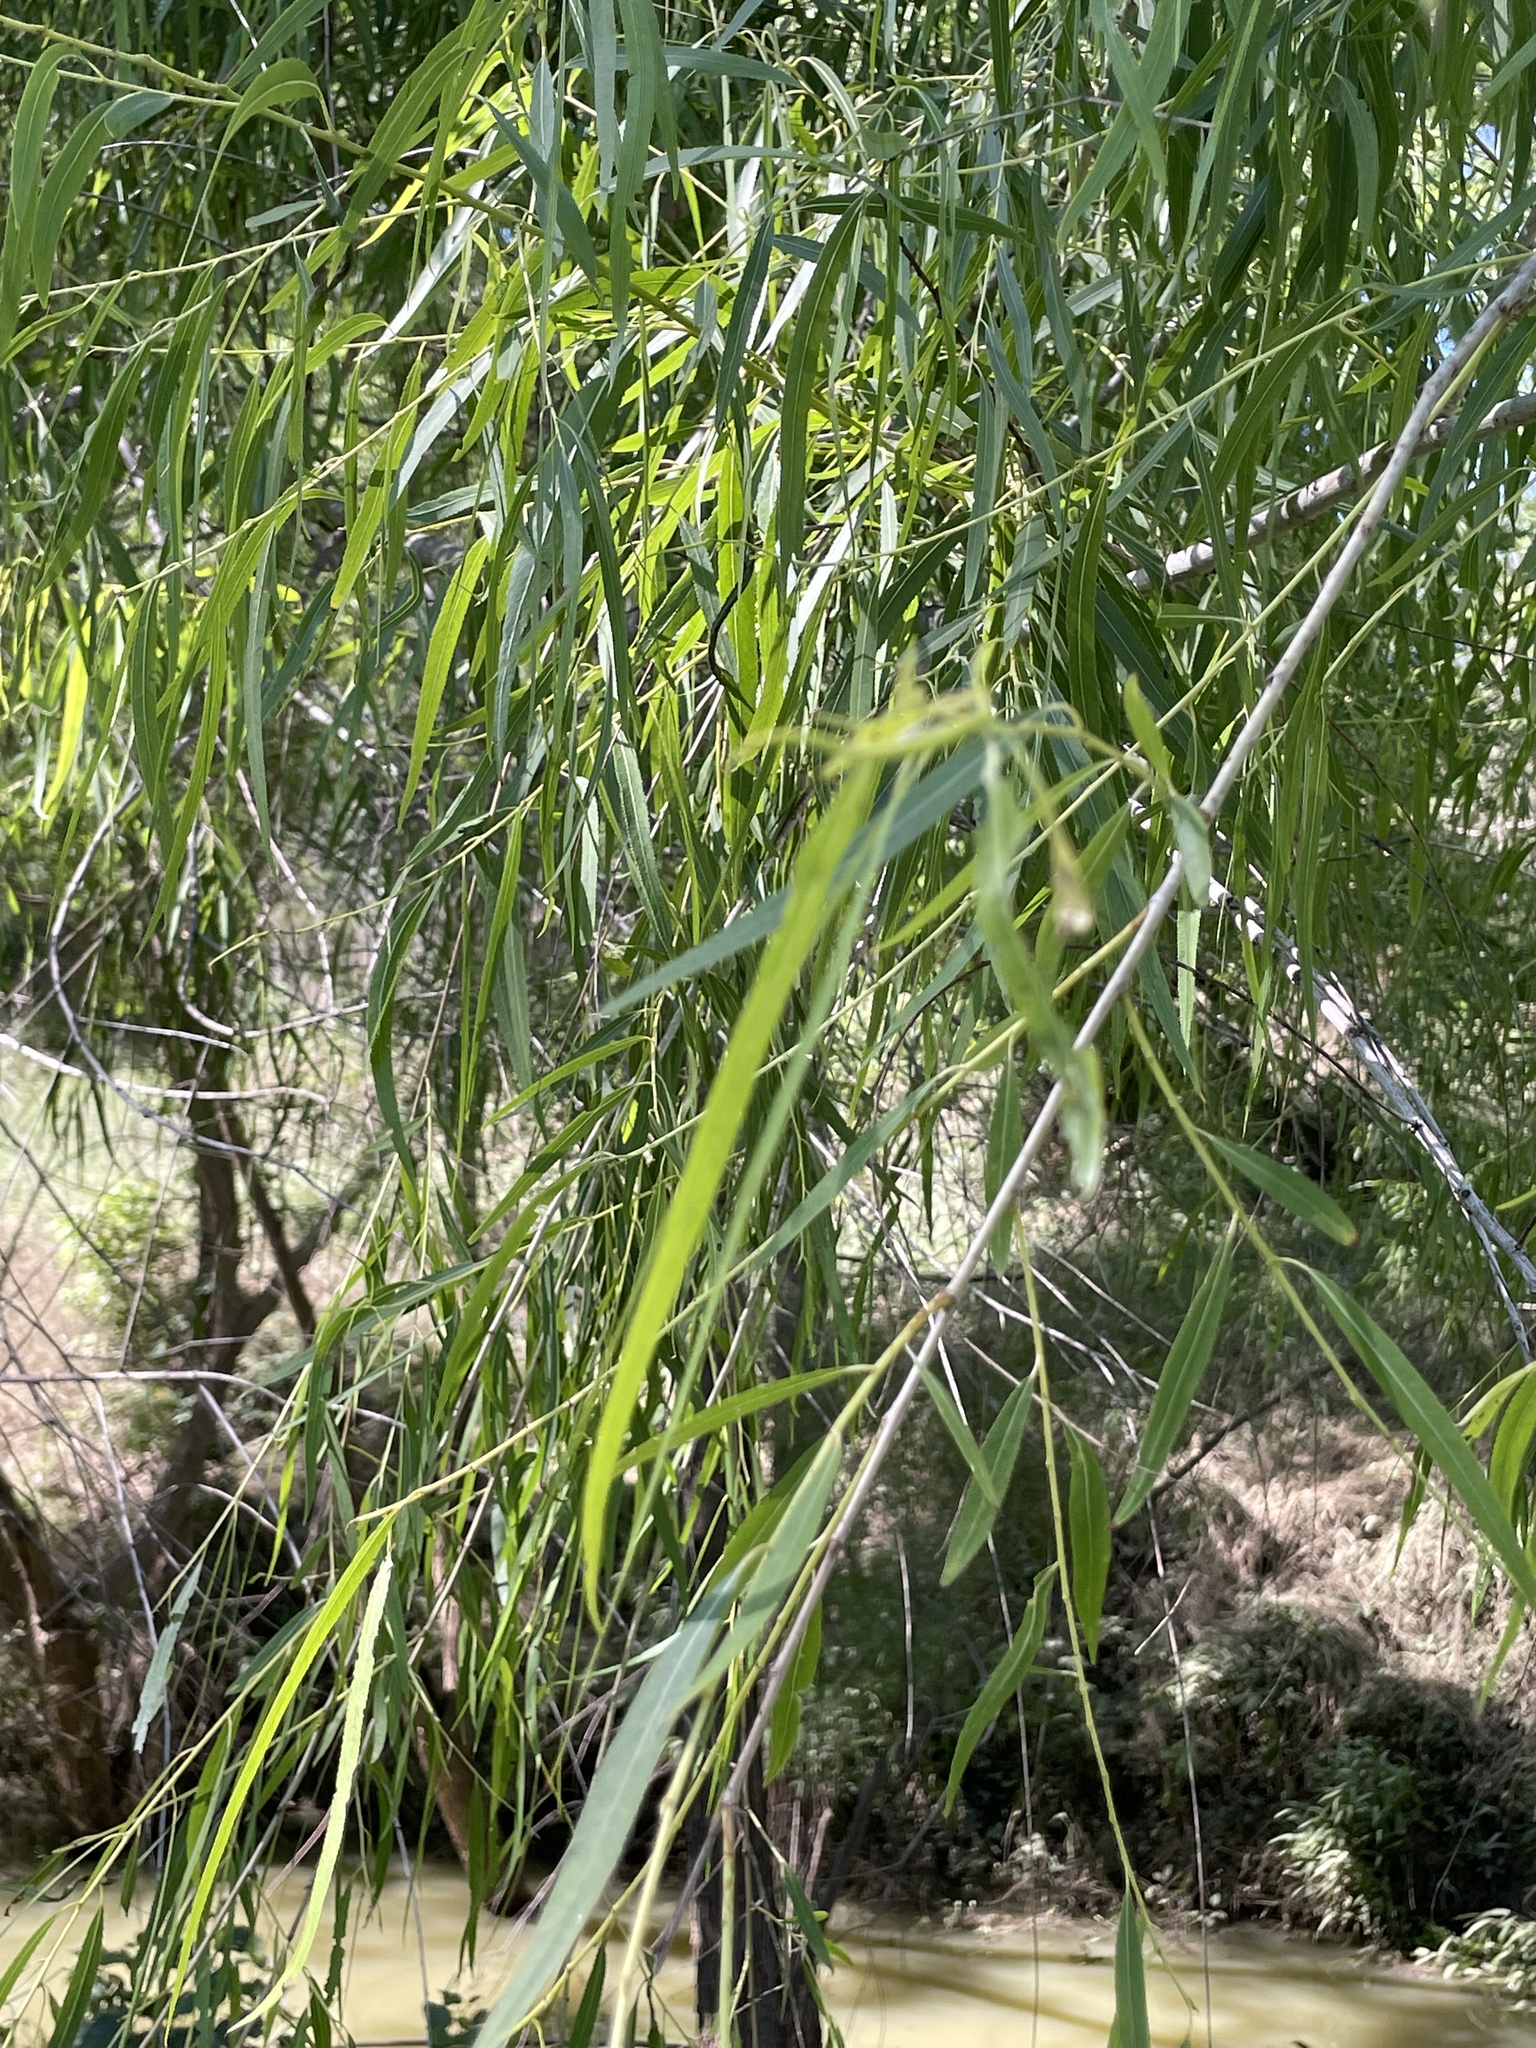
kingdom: Plantae
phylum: Tracheophyta
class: Magnoliopsida
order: Malpighiales
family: Salicaceae
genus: Salix
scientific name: Salix nigra
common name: Black willow
